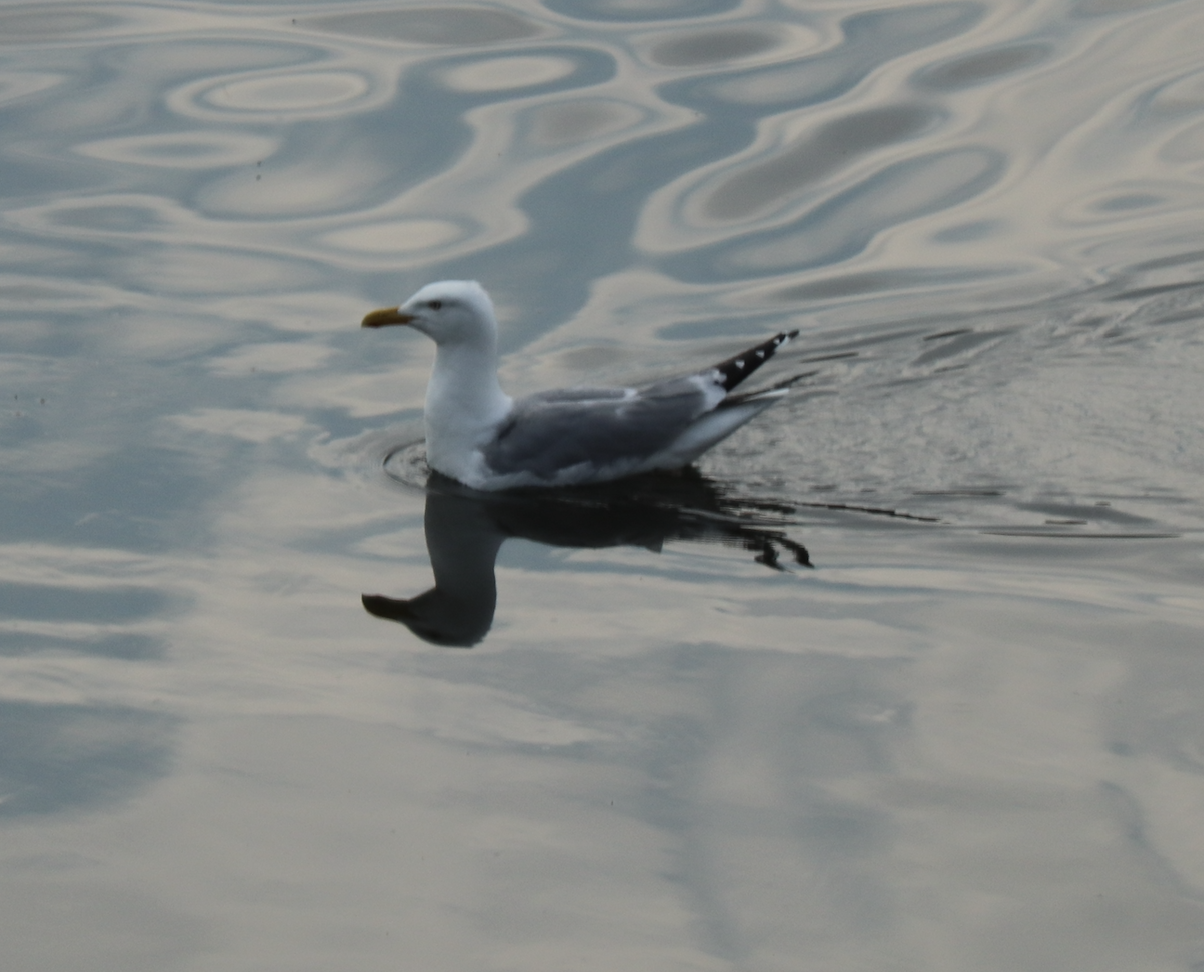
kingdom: Animalia
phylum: Chordata
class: Aves
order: Charadriiformes
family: Laridae
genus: Larus
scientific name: Larus argentatus
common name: Herring gull
